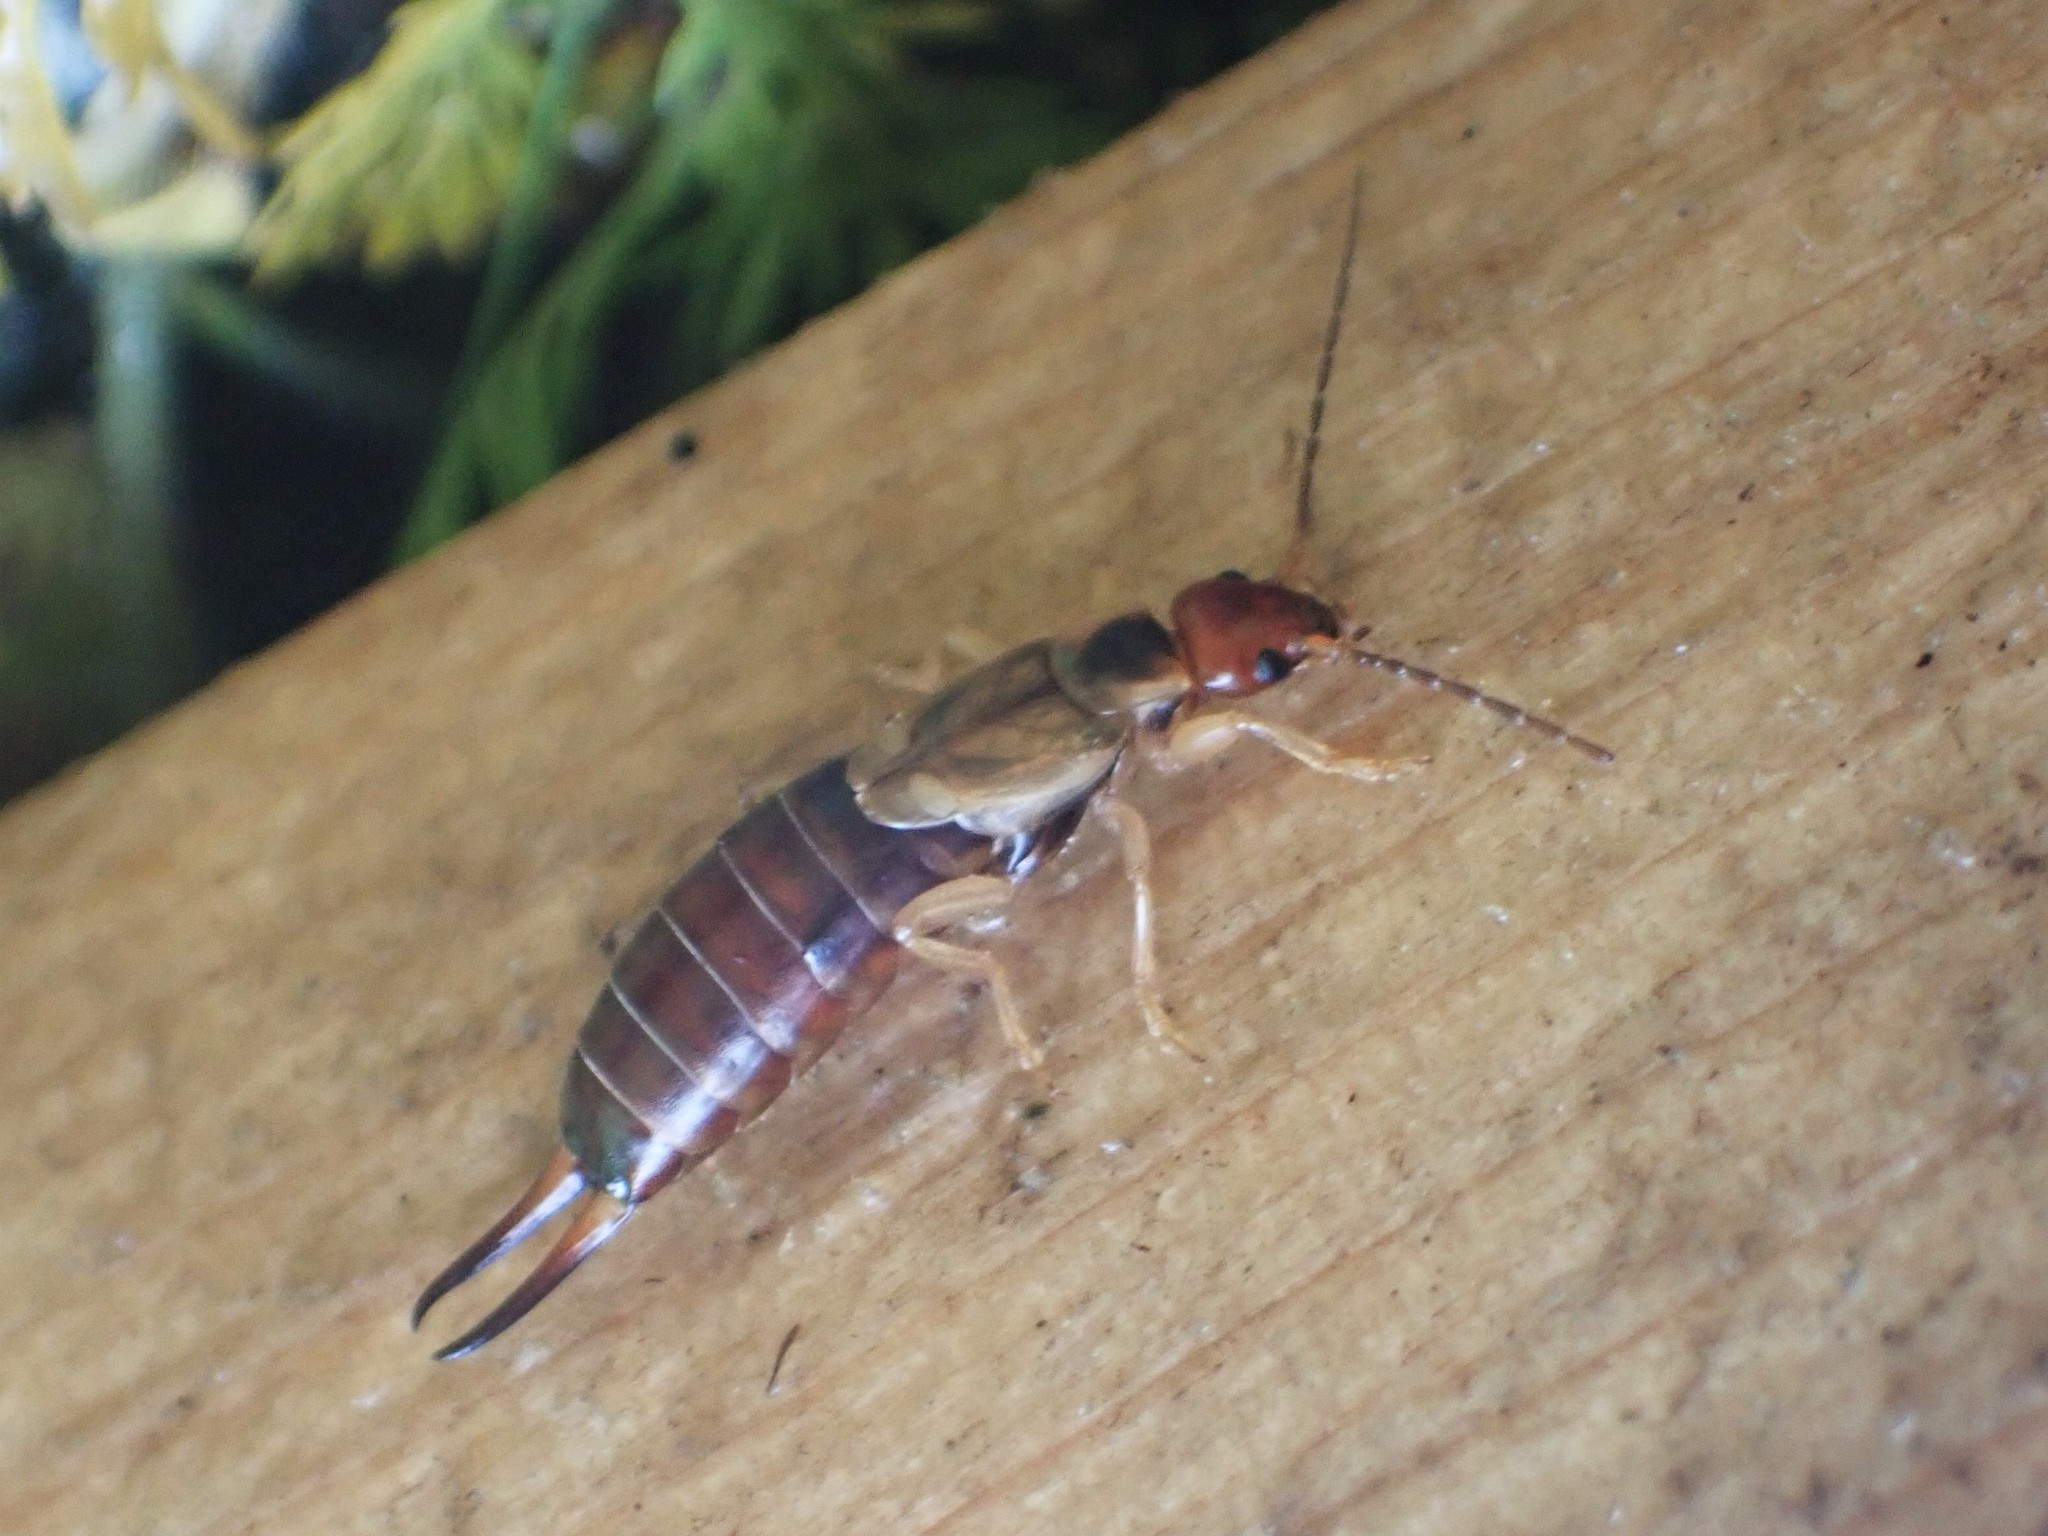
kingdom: Animalia
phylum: Arthropoda
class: Insecta
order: Dermaptera
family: Forficulidae
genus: Forficula
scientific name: Forficula
